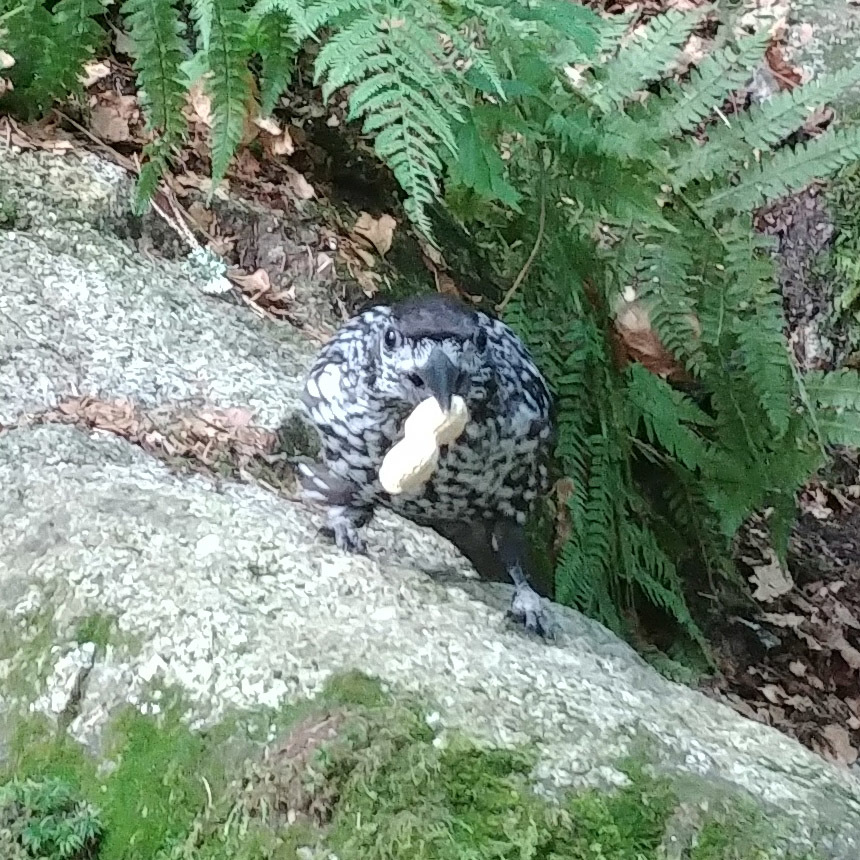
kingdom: Animalia
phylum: Chordata
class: Aves
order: Passeriformes
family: Corvidae
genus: Nucifraga
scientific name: Nucifraga caryocatactes
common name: Spotted nutcracker
